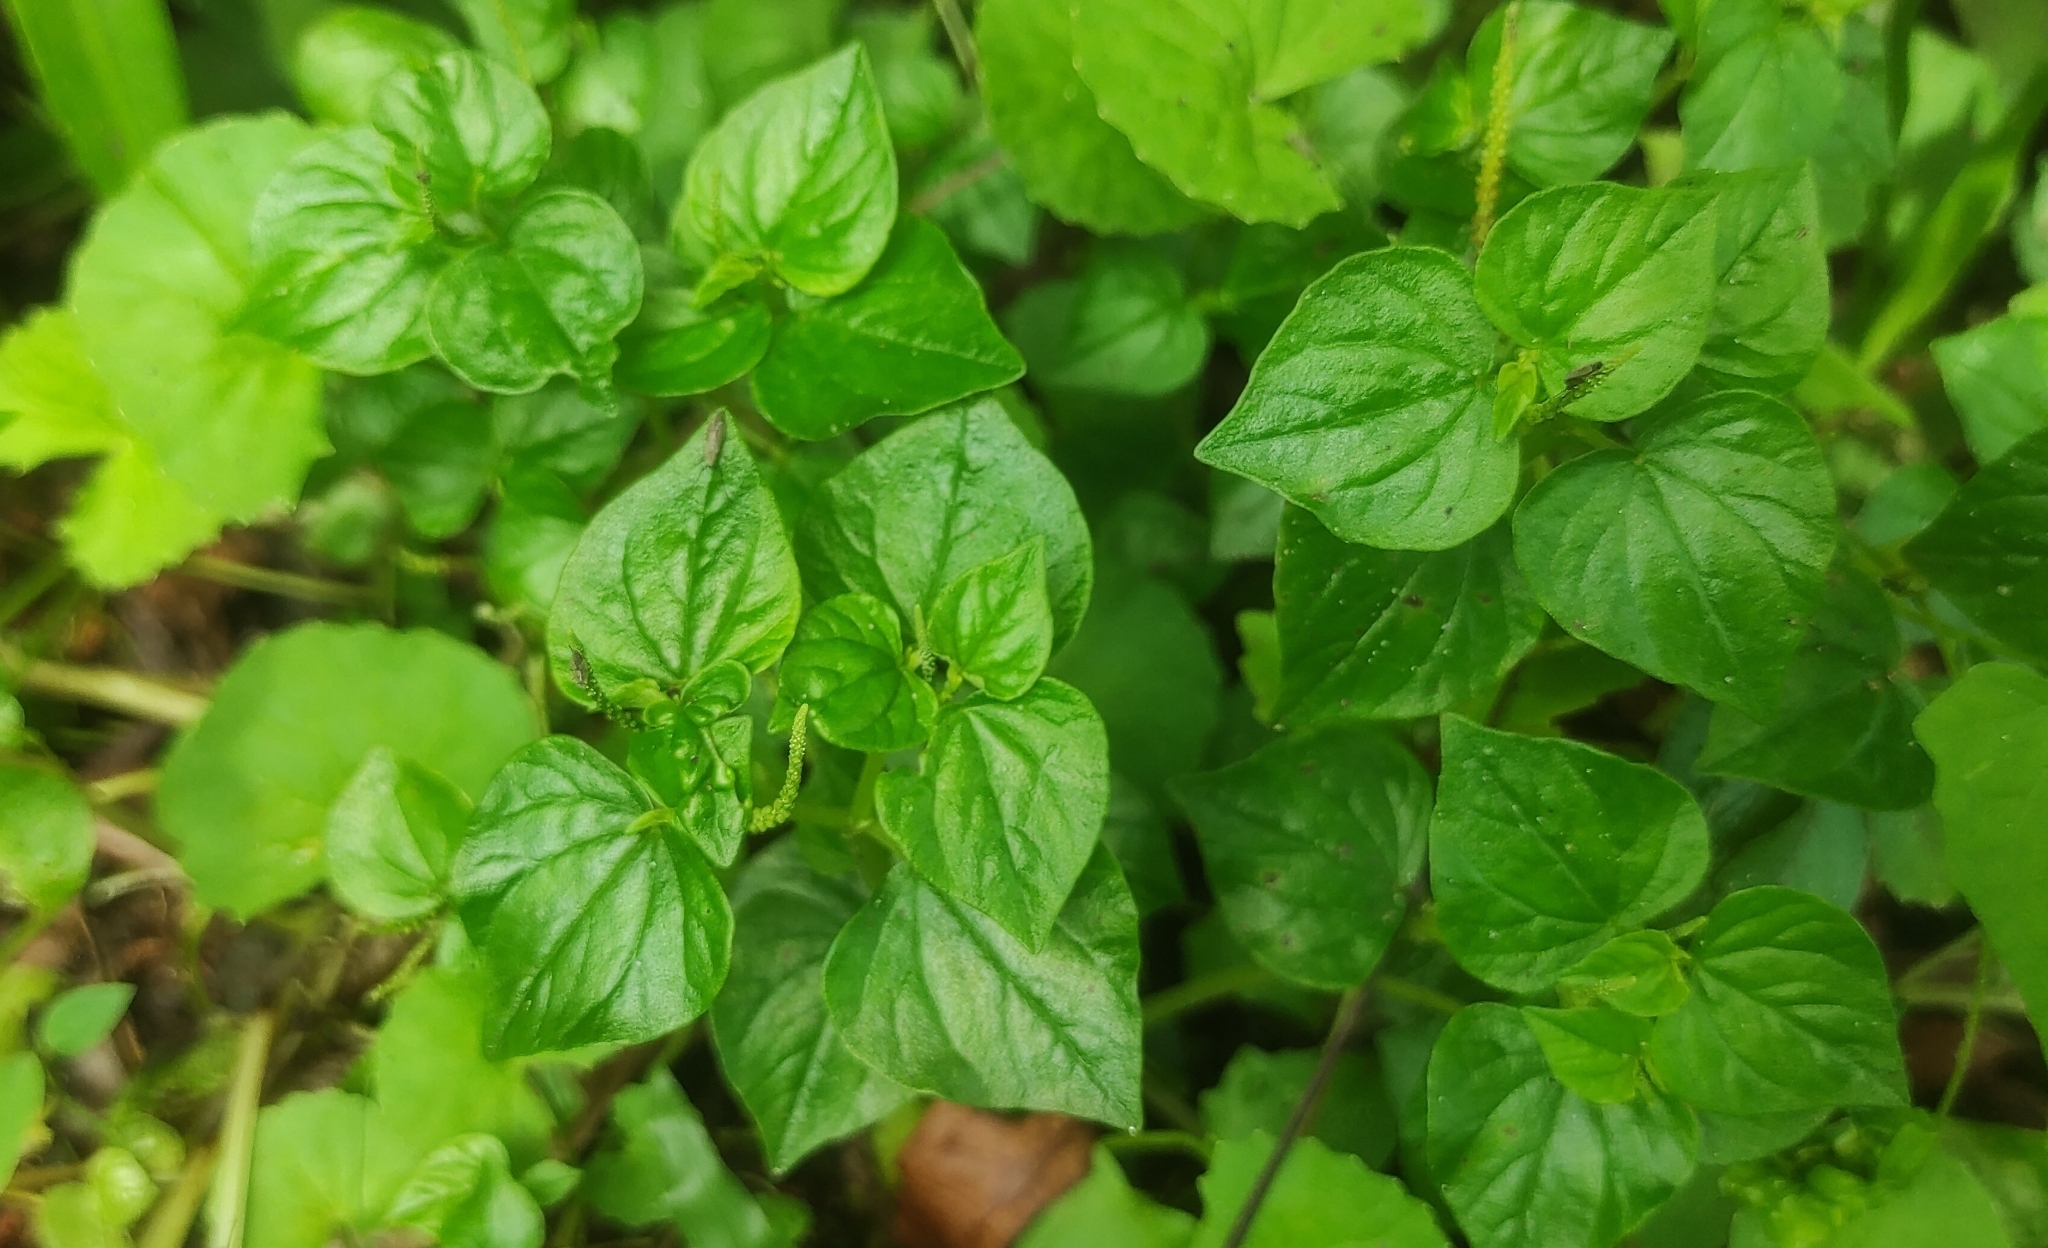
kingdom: Plantae
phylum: Tracheophyta
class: Magnoliopsida
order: Piperales
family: Piperaceae
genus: Peperomia
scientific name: Peperomia pellucida
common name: Man to man
